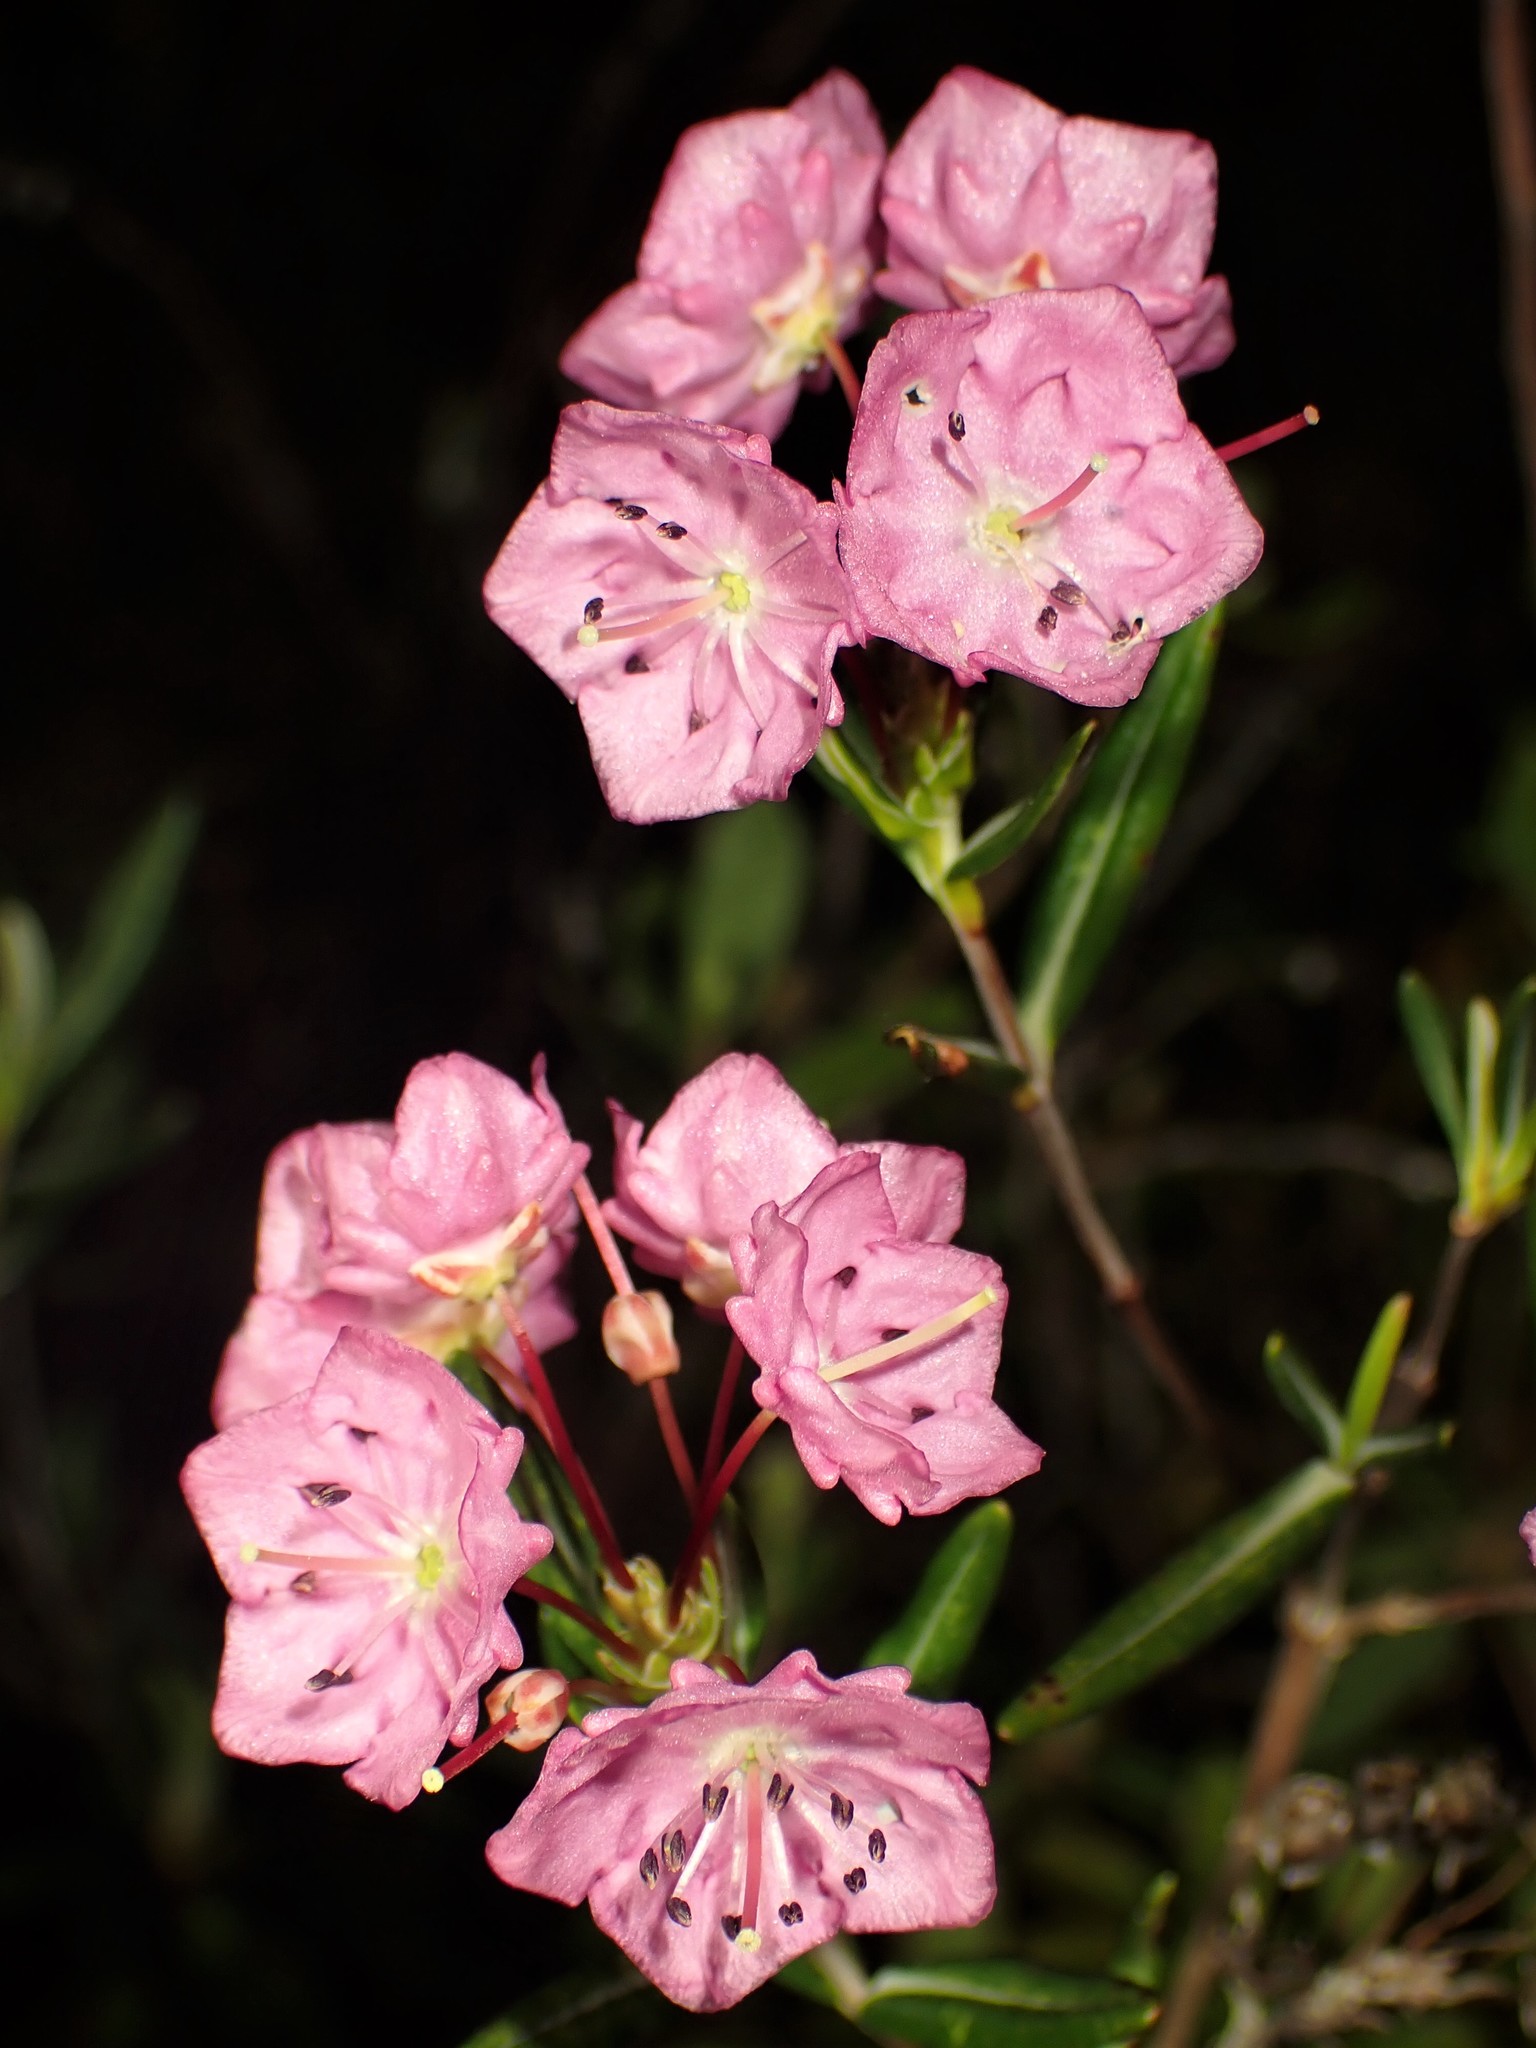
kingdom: Plantae
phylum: Tracheophyta
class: Magnoliopsida
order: Ericales
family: Ericaceae
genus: Kalmia
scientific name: Kalmia polifolia
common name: Bog-laurel
